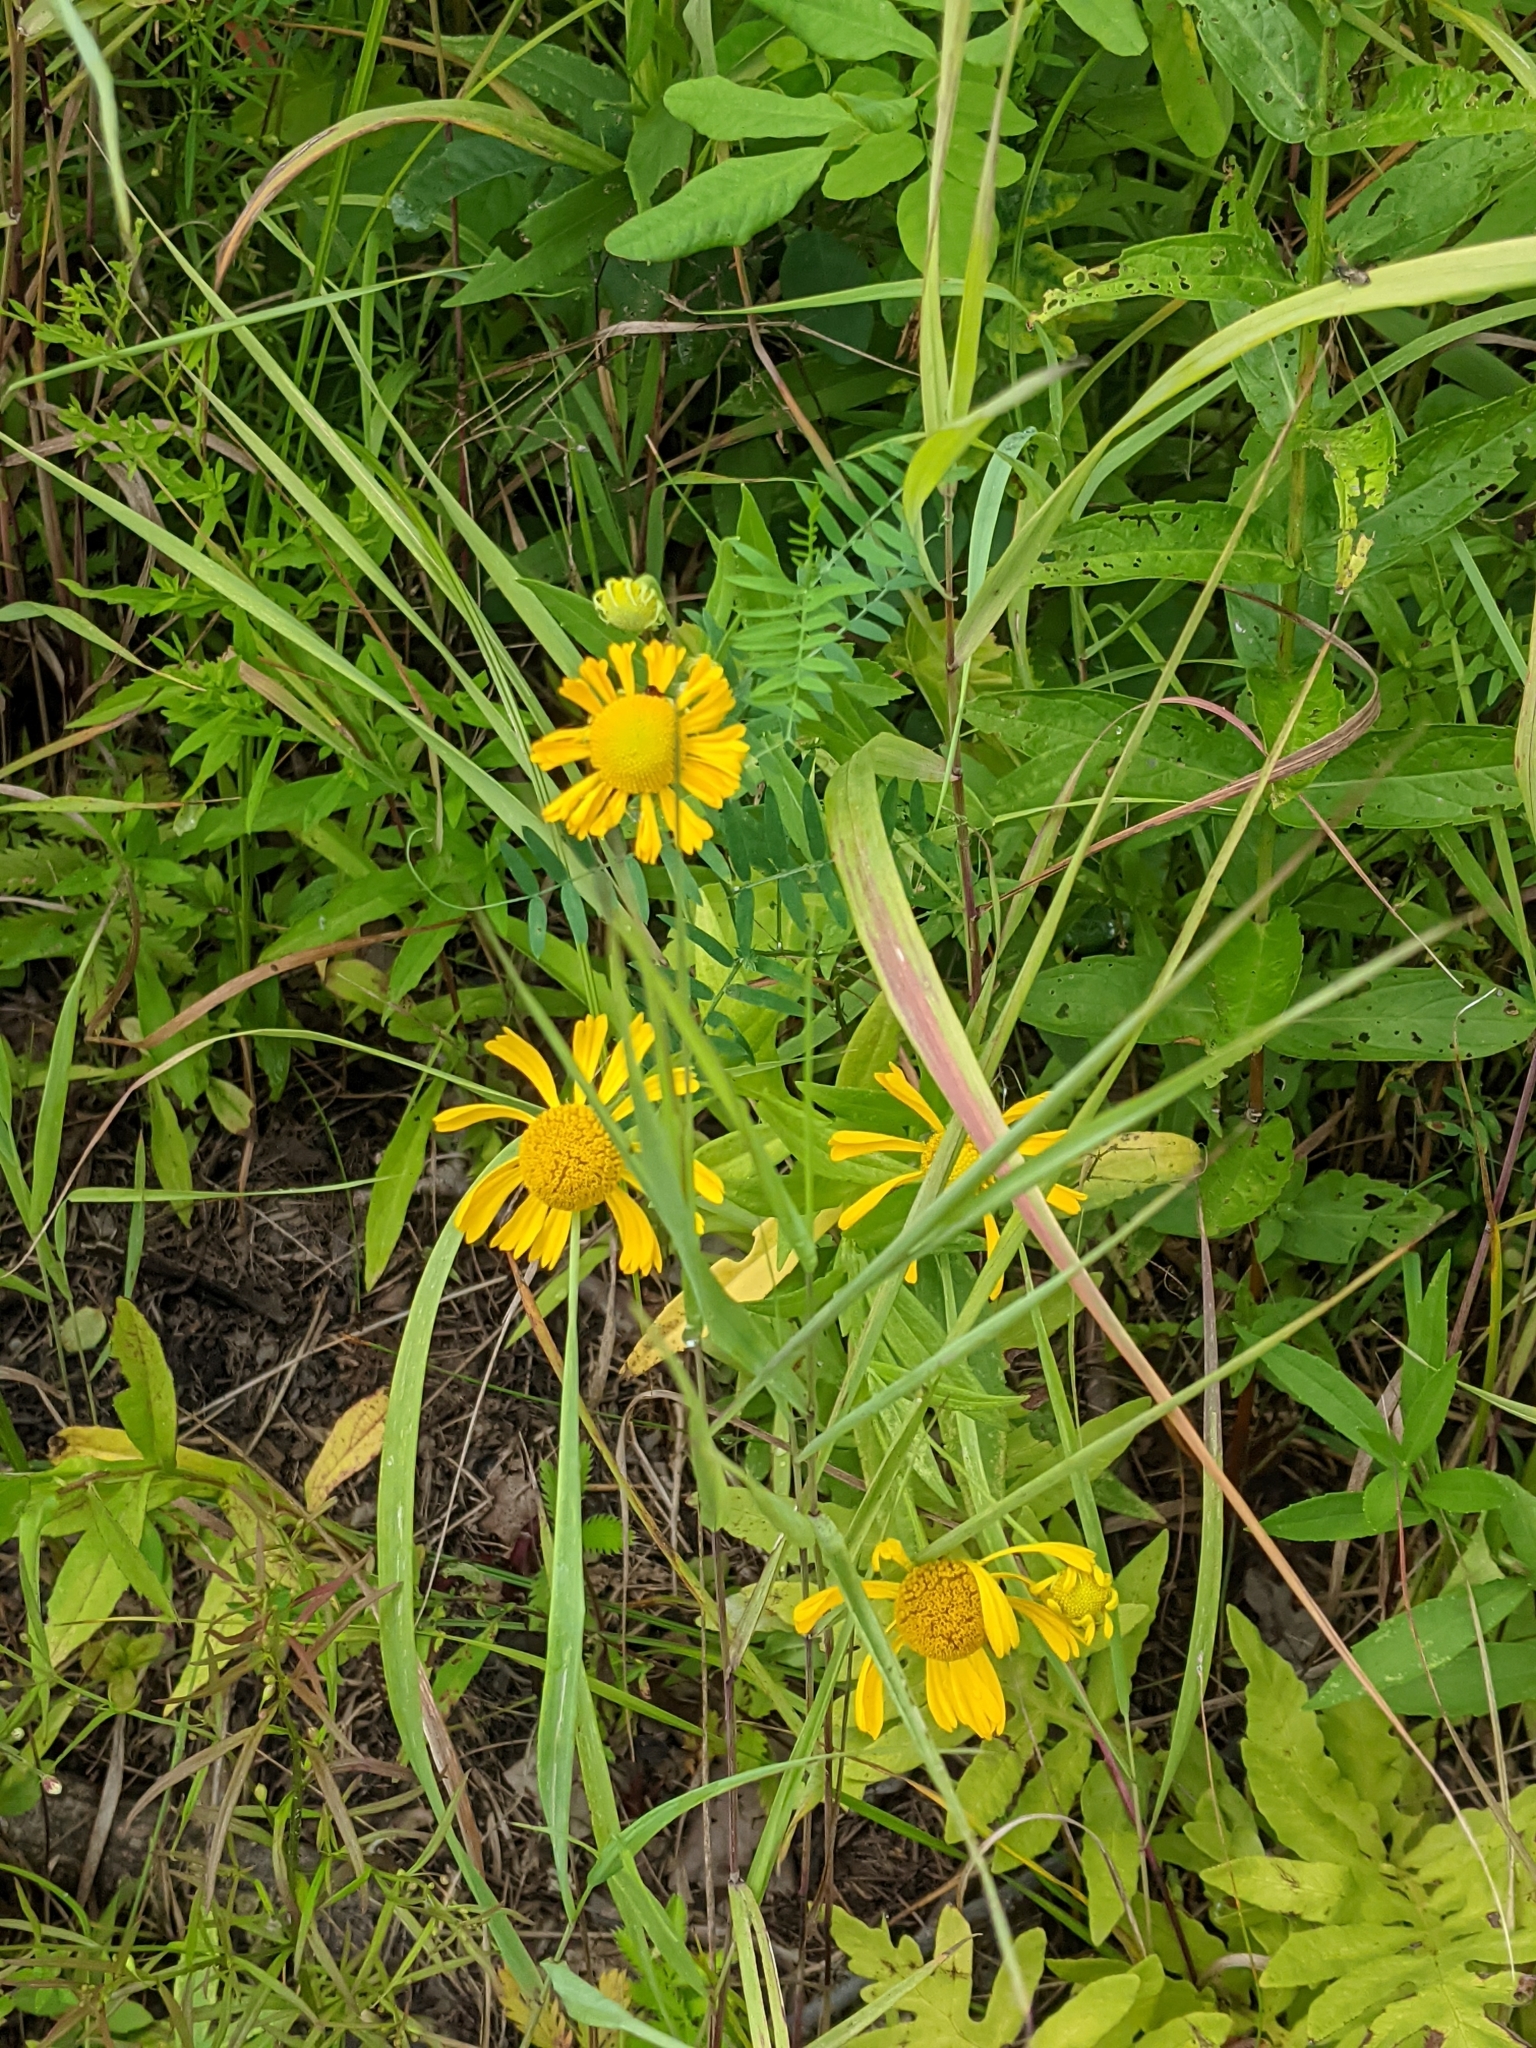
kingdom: Plantae
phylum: Tracheophyta
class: Magnoliopsida
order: Asterales
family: Asteraceae
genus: Helenium
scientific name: Helenium autumnale
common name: Sneezeweed
